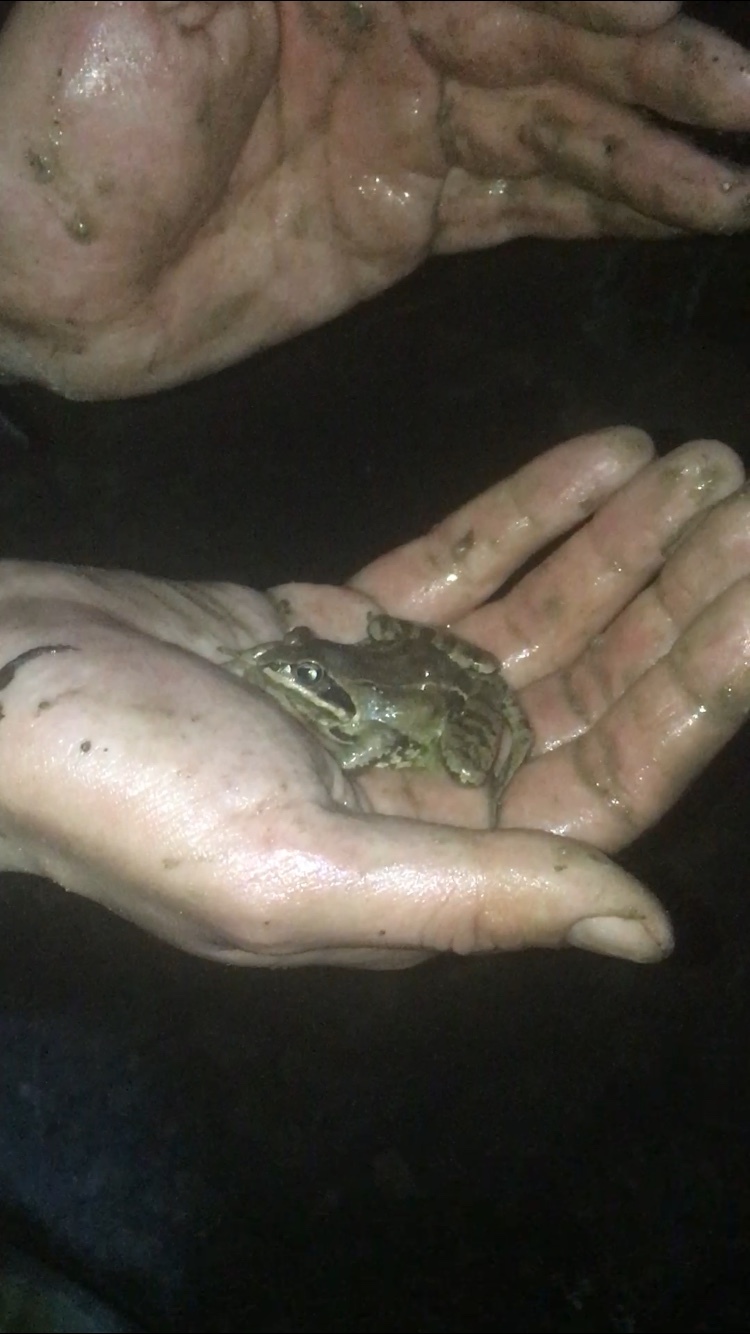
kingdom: Animalia
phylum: Chordata
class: Amphibia
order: Anura
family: Ranidae
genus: Rana
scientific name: Rana arvalis
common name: Moor frog
